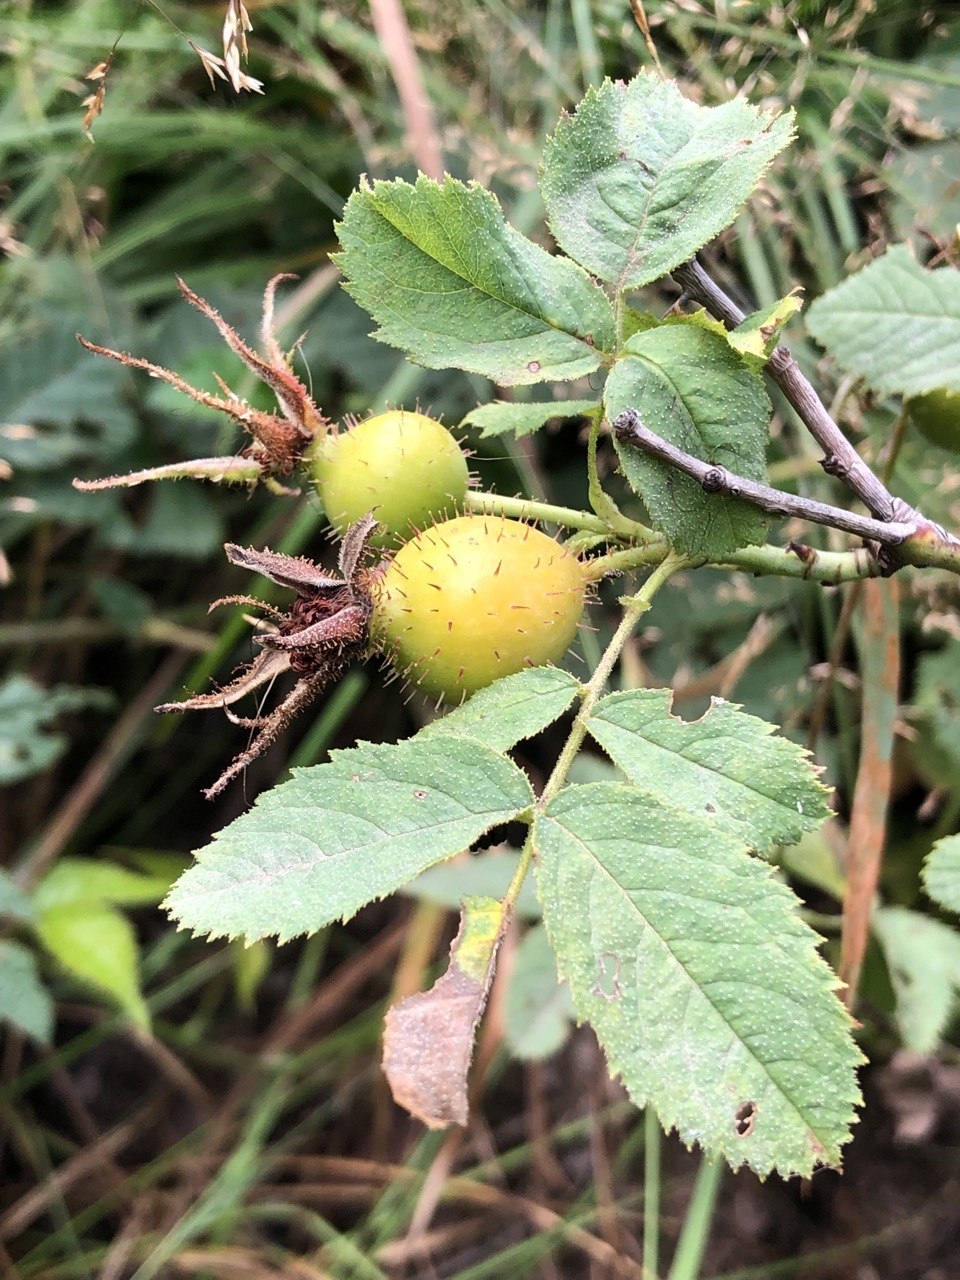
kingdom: Plantae
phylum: Tracheophyta
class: Magnoliopsida
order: Rosales
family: Rosaceae
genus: Rosa
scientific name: Rosa villosa
